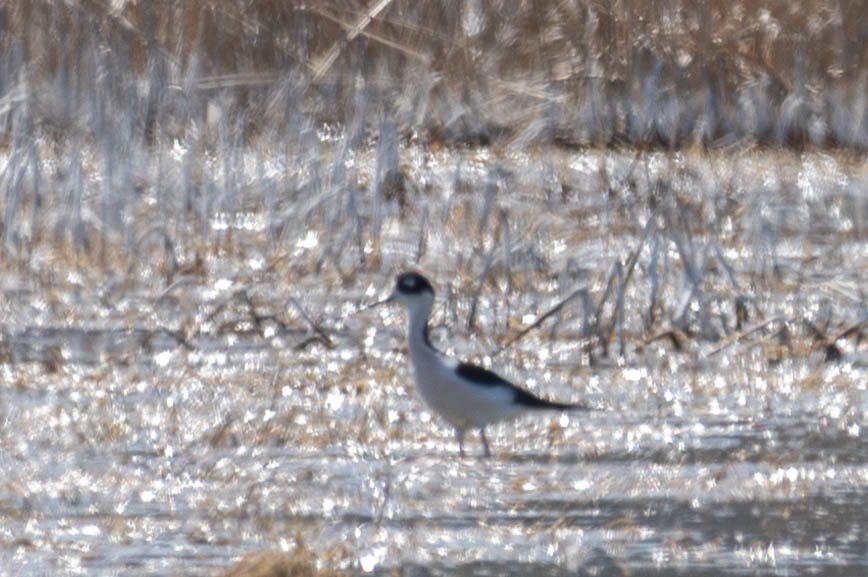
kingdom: Animalia
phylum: Chordata
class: Aves
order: Charadriiformes
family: Recurvirostridae
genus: Himantopus
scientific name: Himantopus mexicanus
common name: Black-necked stilt
